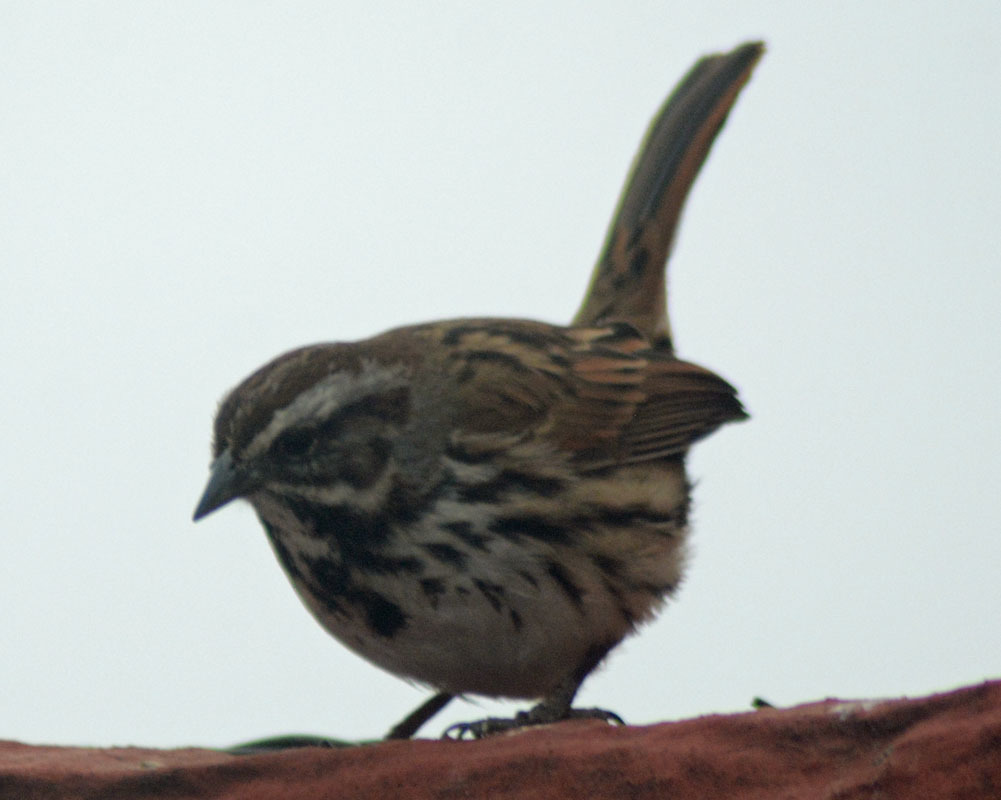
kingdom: Animalia
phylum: Chordata
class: Aves
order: Passeriformes
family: Passerellidae
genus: Melospiza
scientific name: Melospiza melodia
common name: Song sparrow
